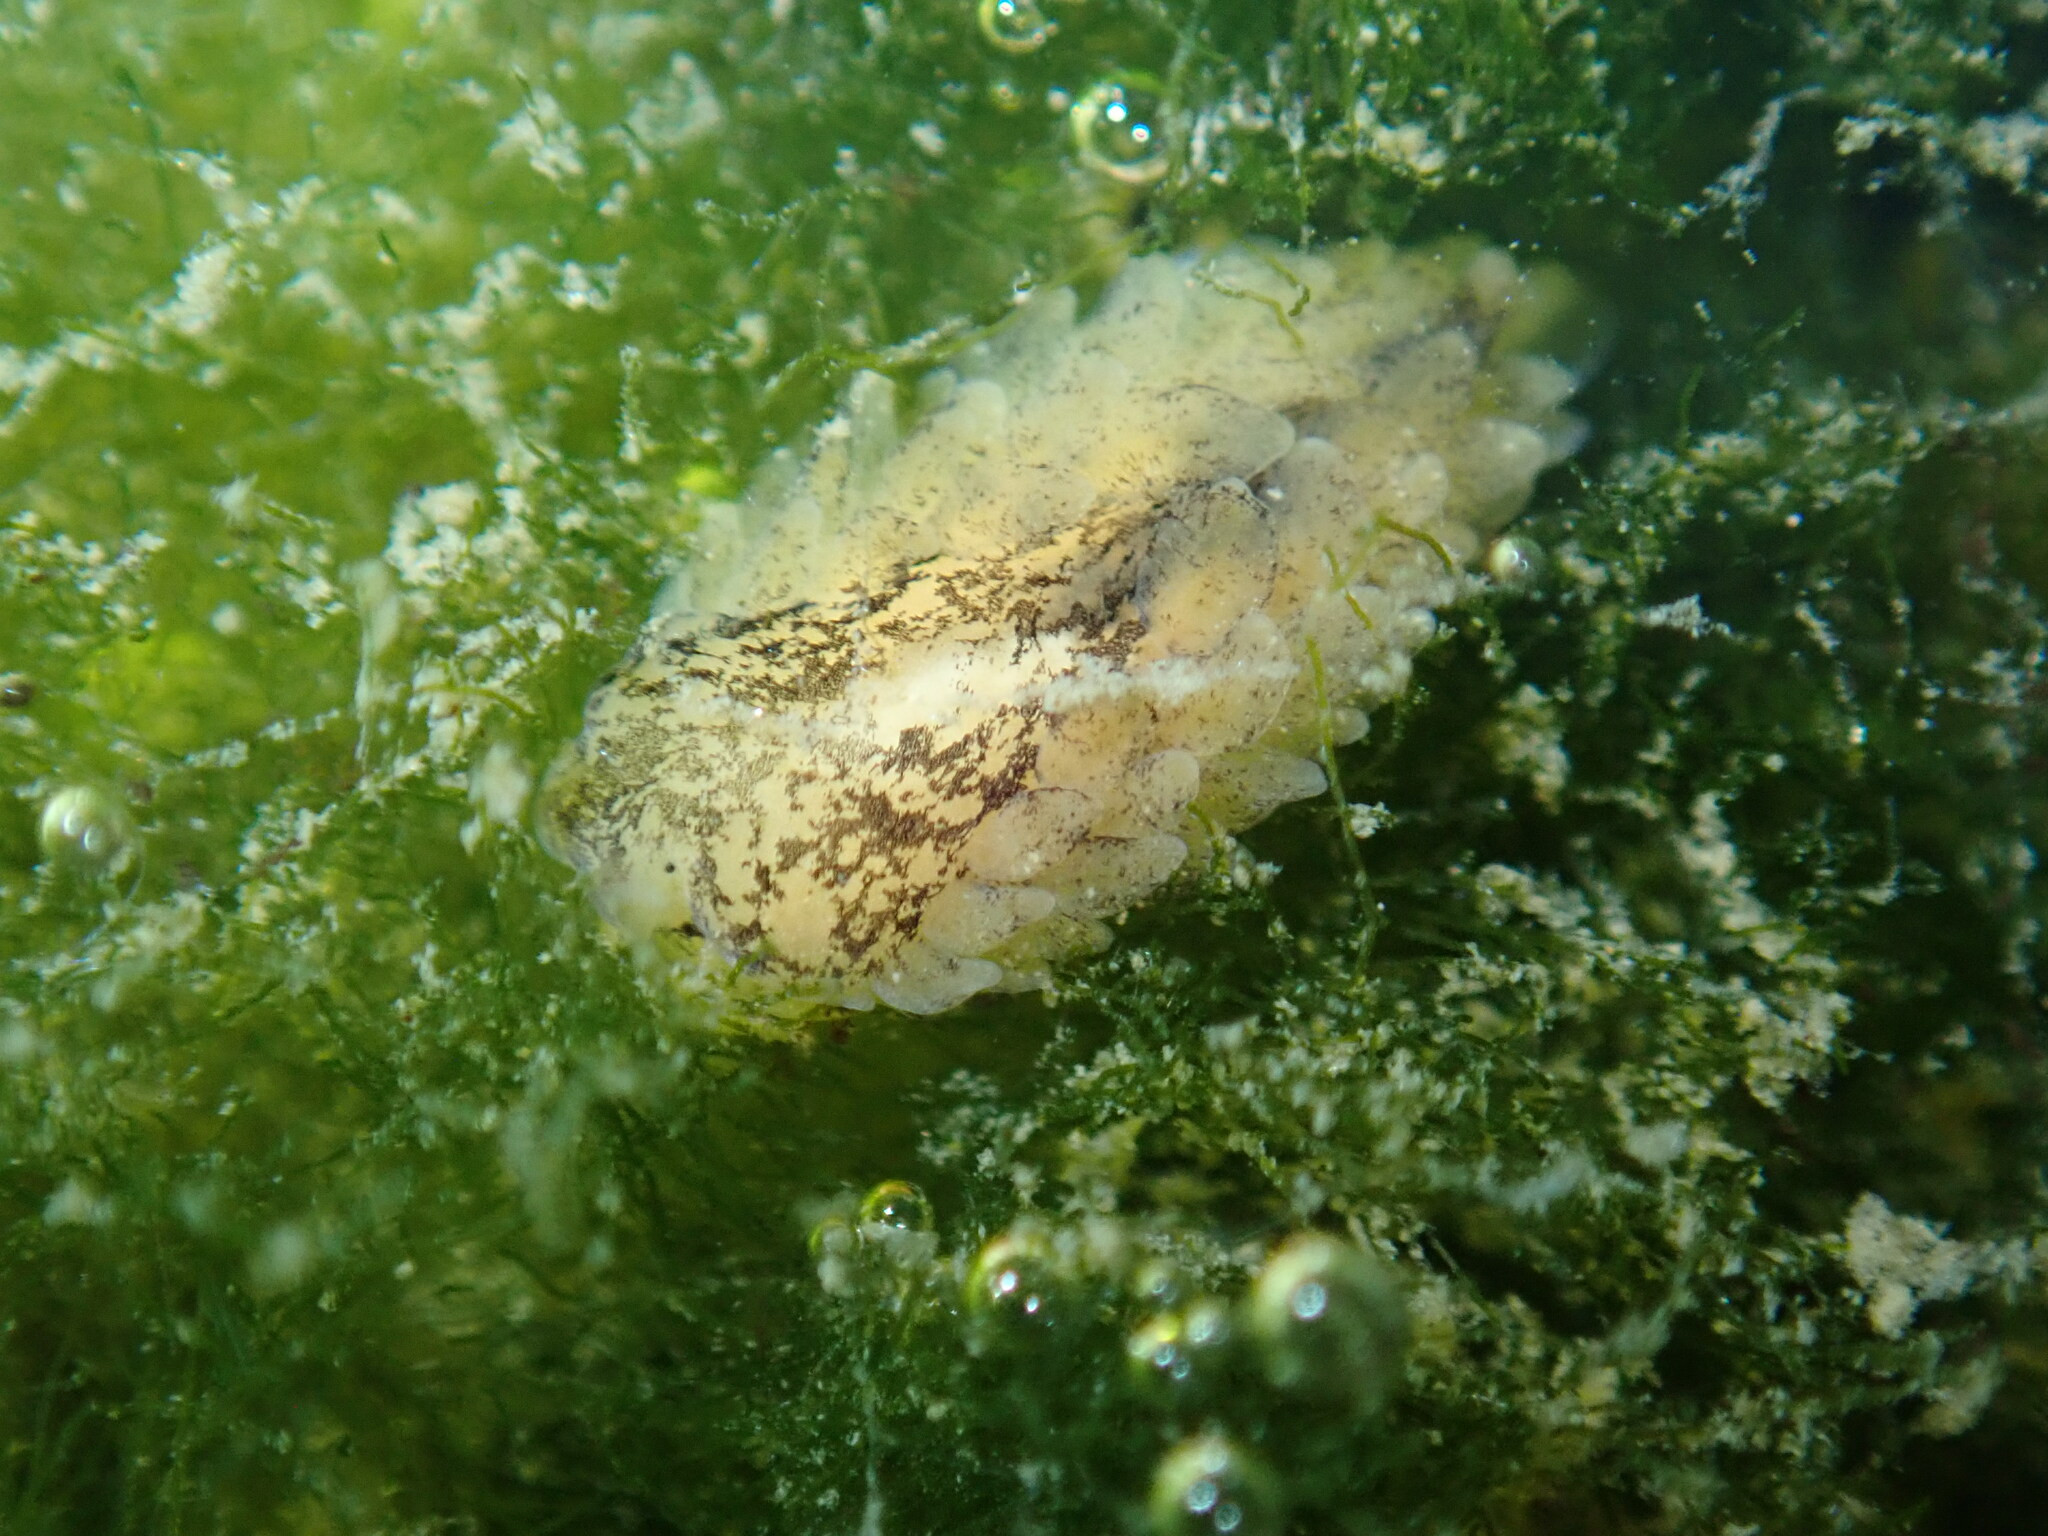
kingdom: Animalia
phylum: Mollusca
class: Gastropoda
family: Limapontiidae
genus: Alderia
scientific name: Alderia modesta
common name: Modest alderia
